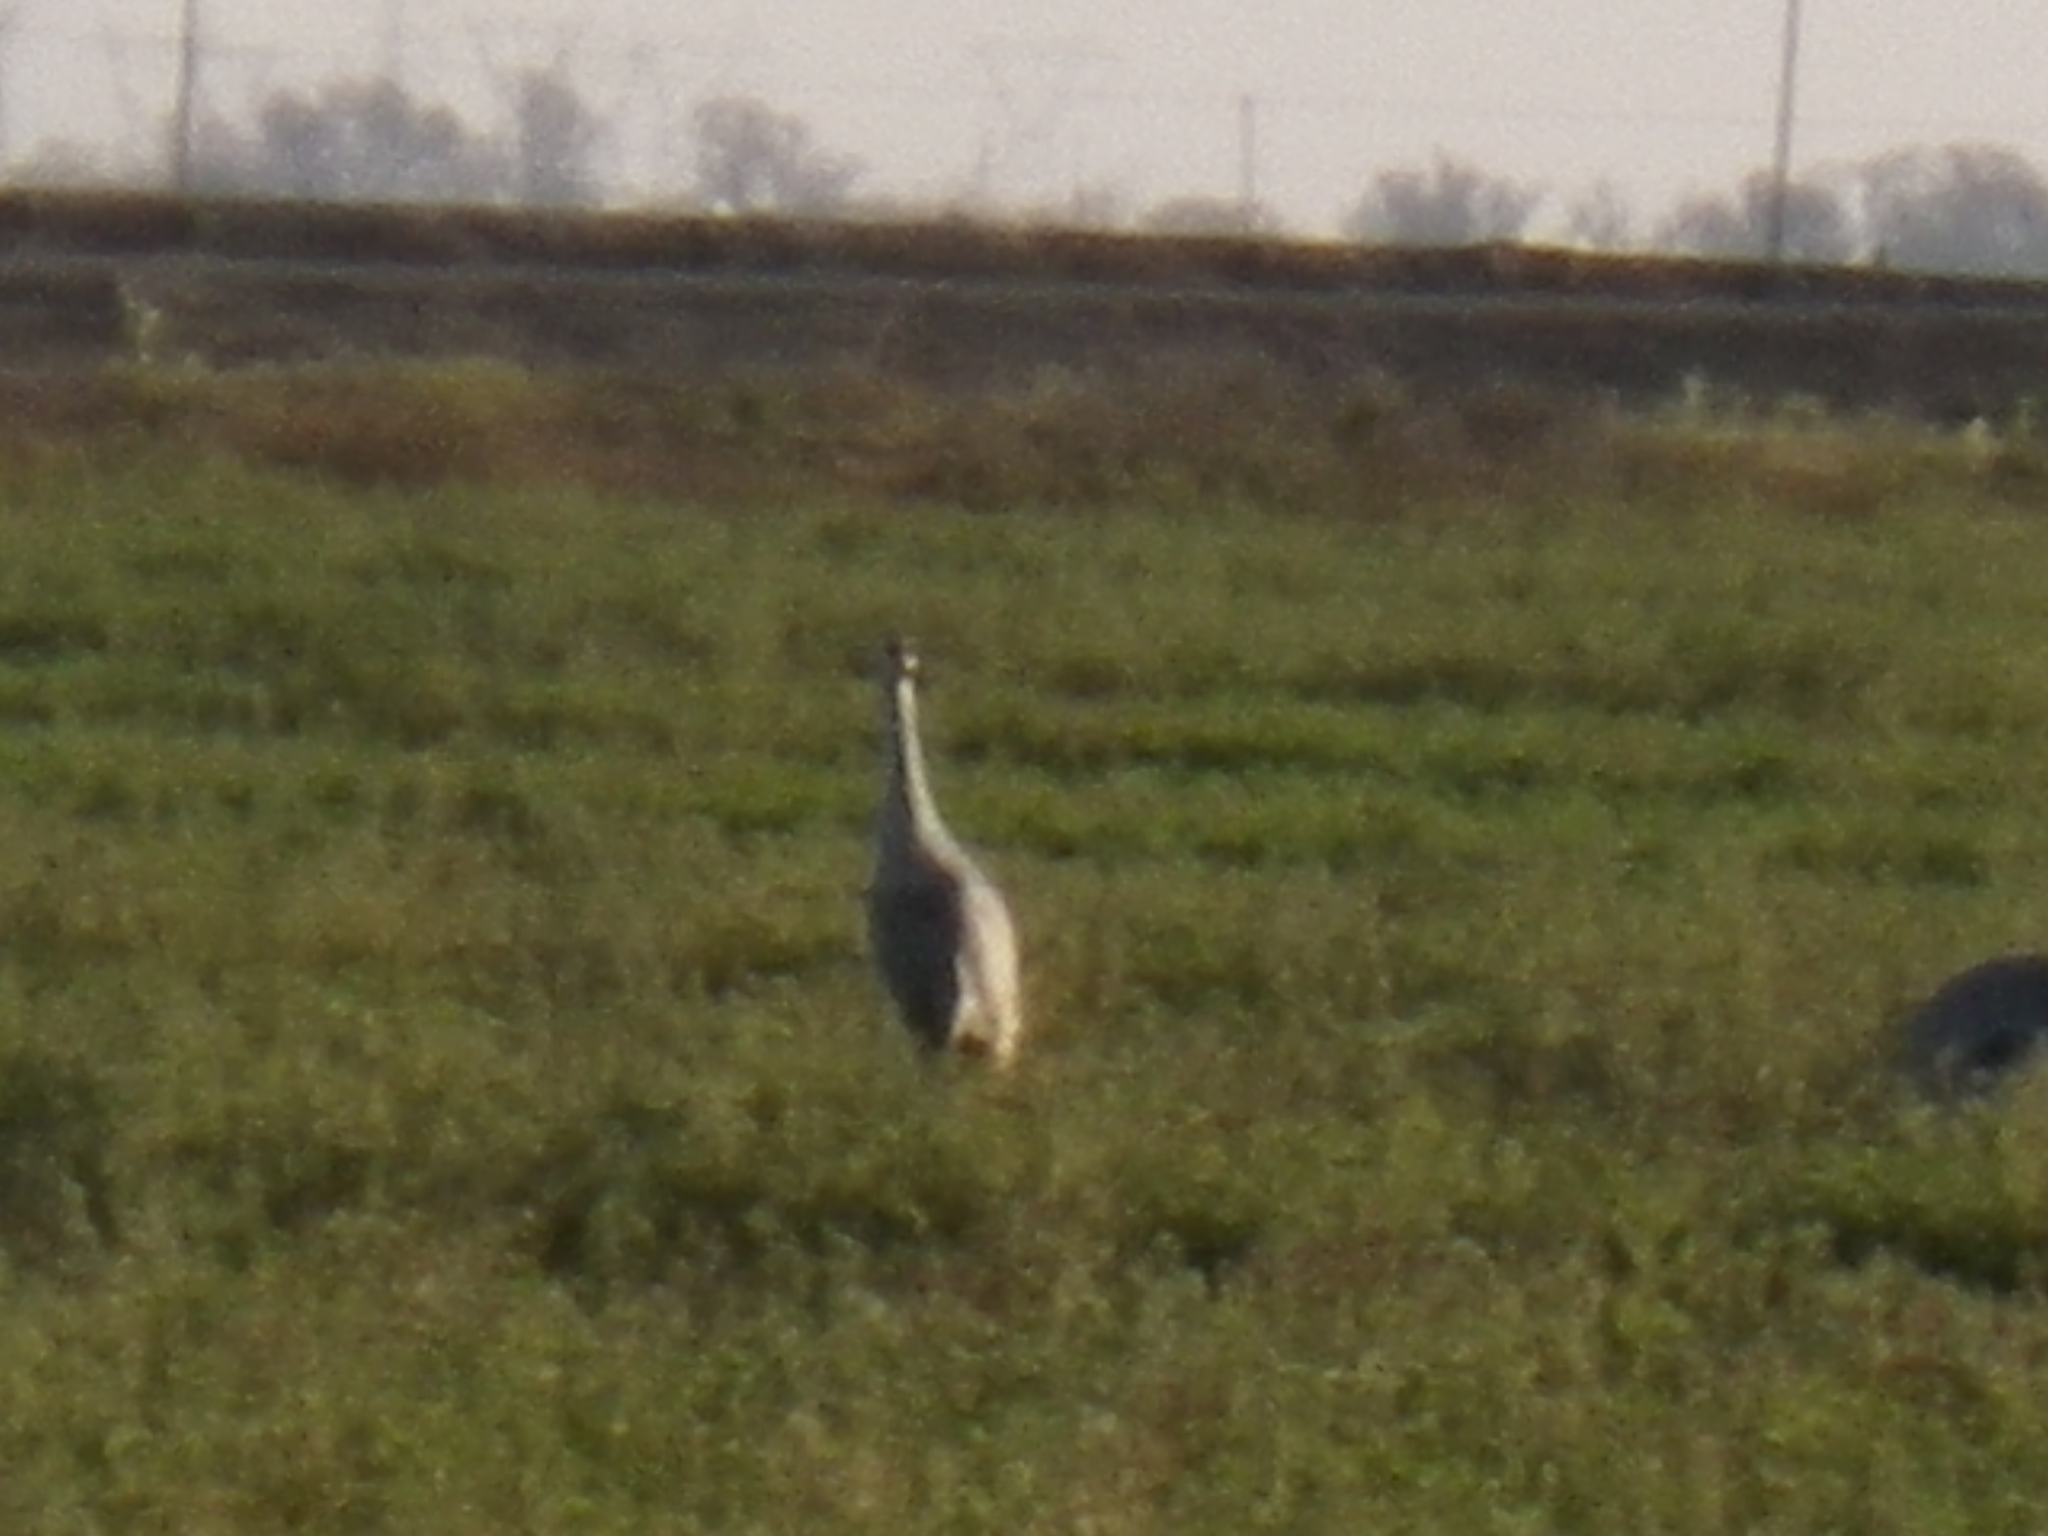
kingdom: Animalia
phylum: Chordata
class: Aves
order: Gruiformes
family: Gruidae
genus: Grus
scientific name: Grus canadensis
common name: Sandhill crane
